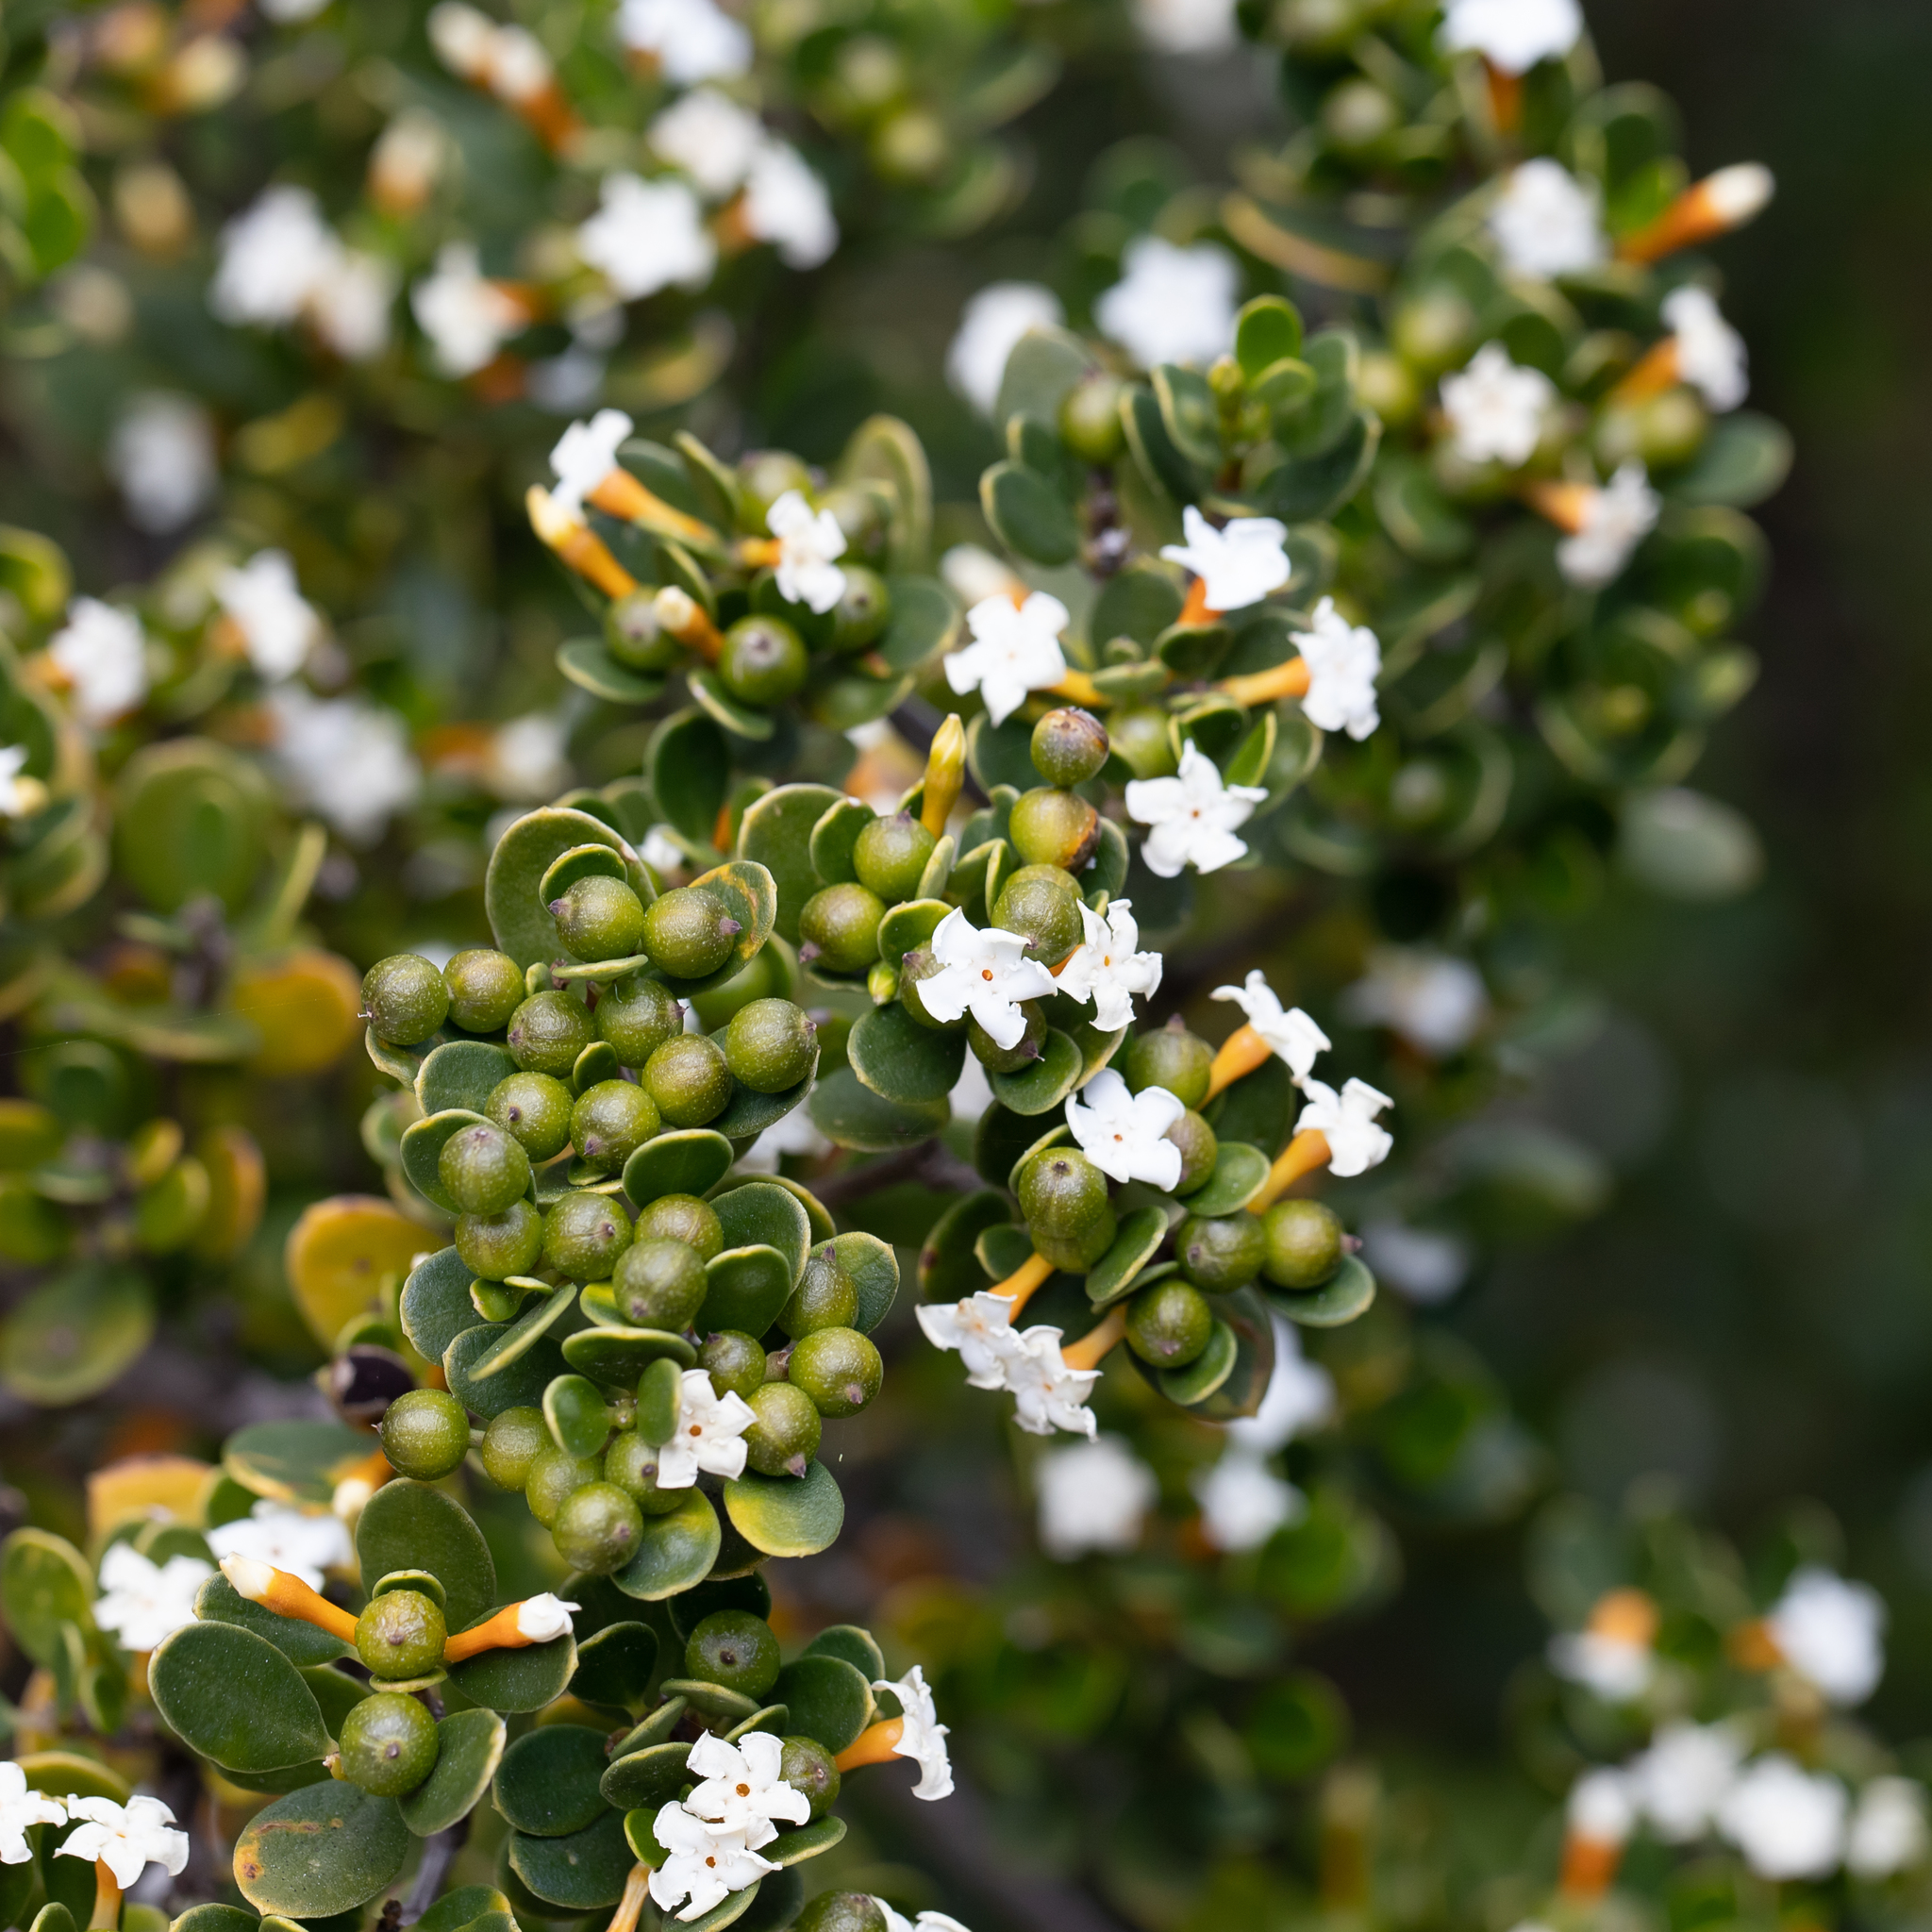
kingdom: Plantae
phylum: Tracheophyta
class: Magnoliopsida
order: Gentianales
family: Apocynaceae
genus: Alyxia
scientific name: Alyxia buxifolia
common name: Dysentery-bush
